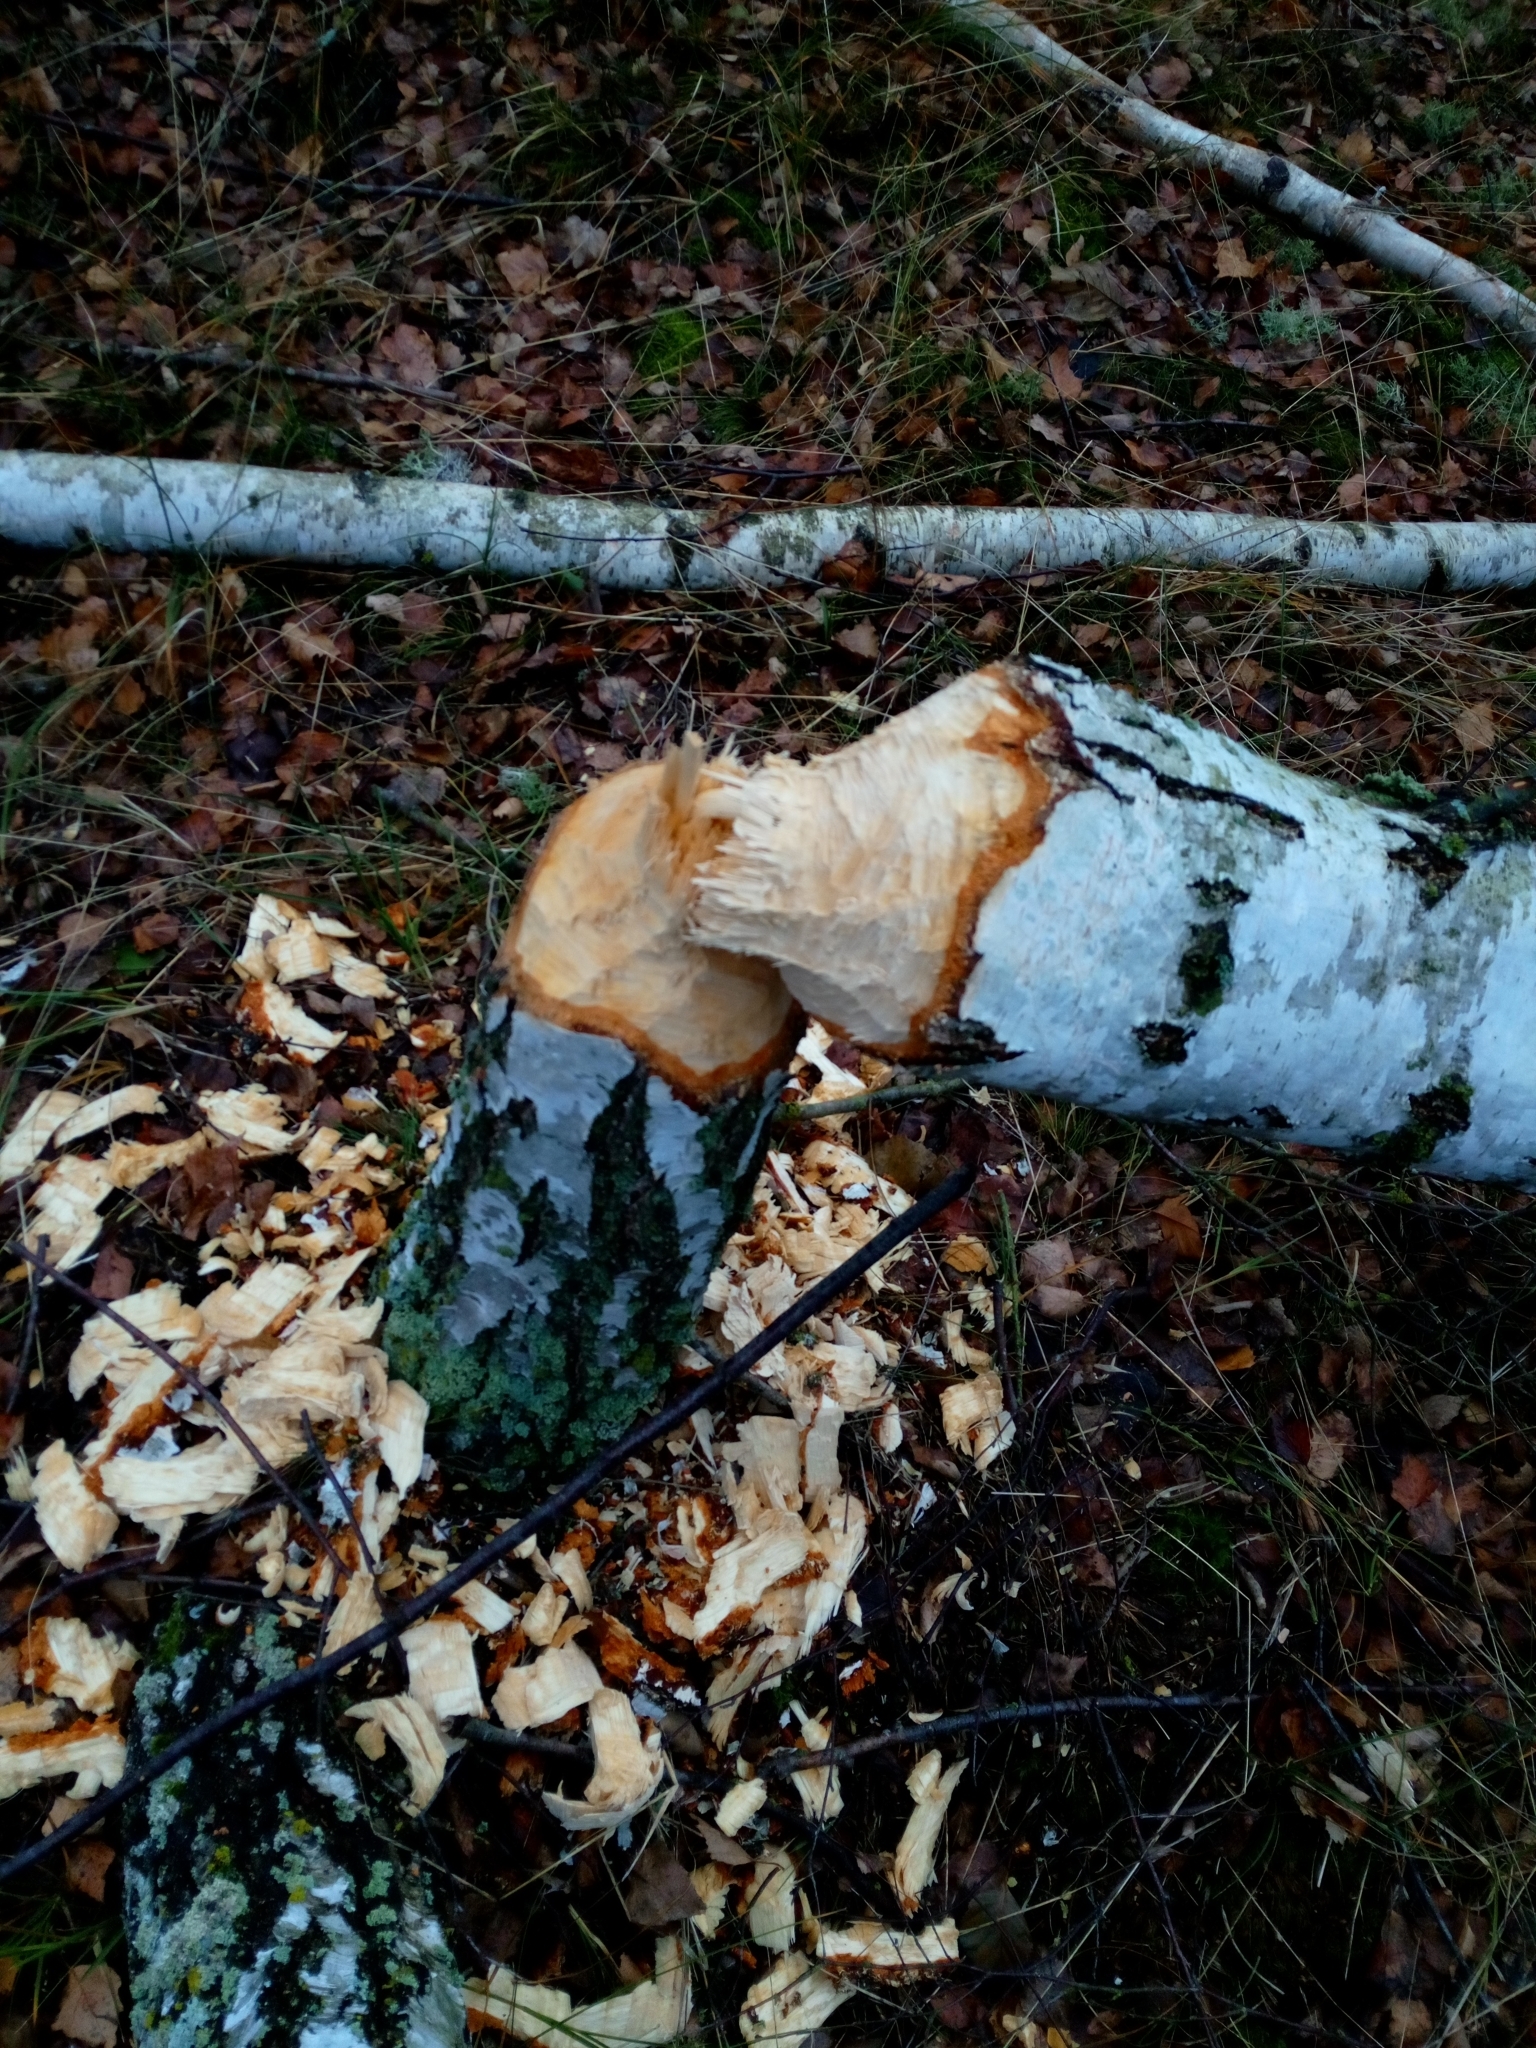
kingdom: Animalia
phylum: Chordata
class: Mammalia
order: Rodentia
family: Castoridae
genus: Castor
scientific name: Castor fiber
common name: Eurasian beaver
